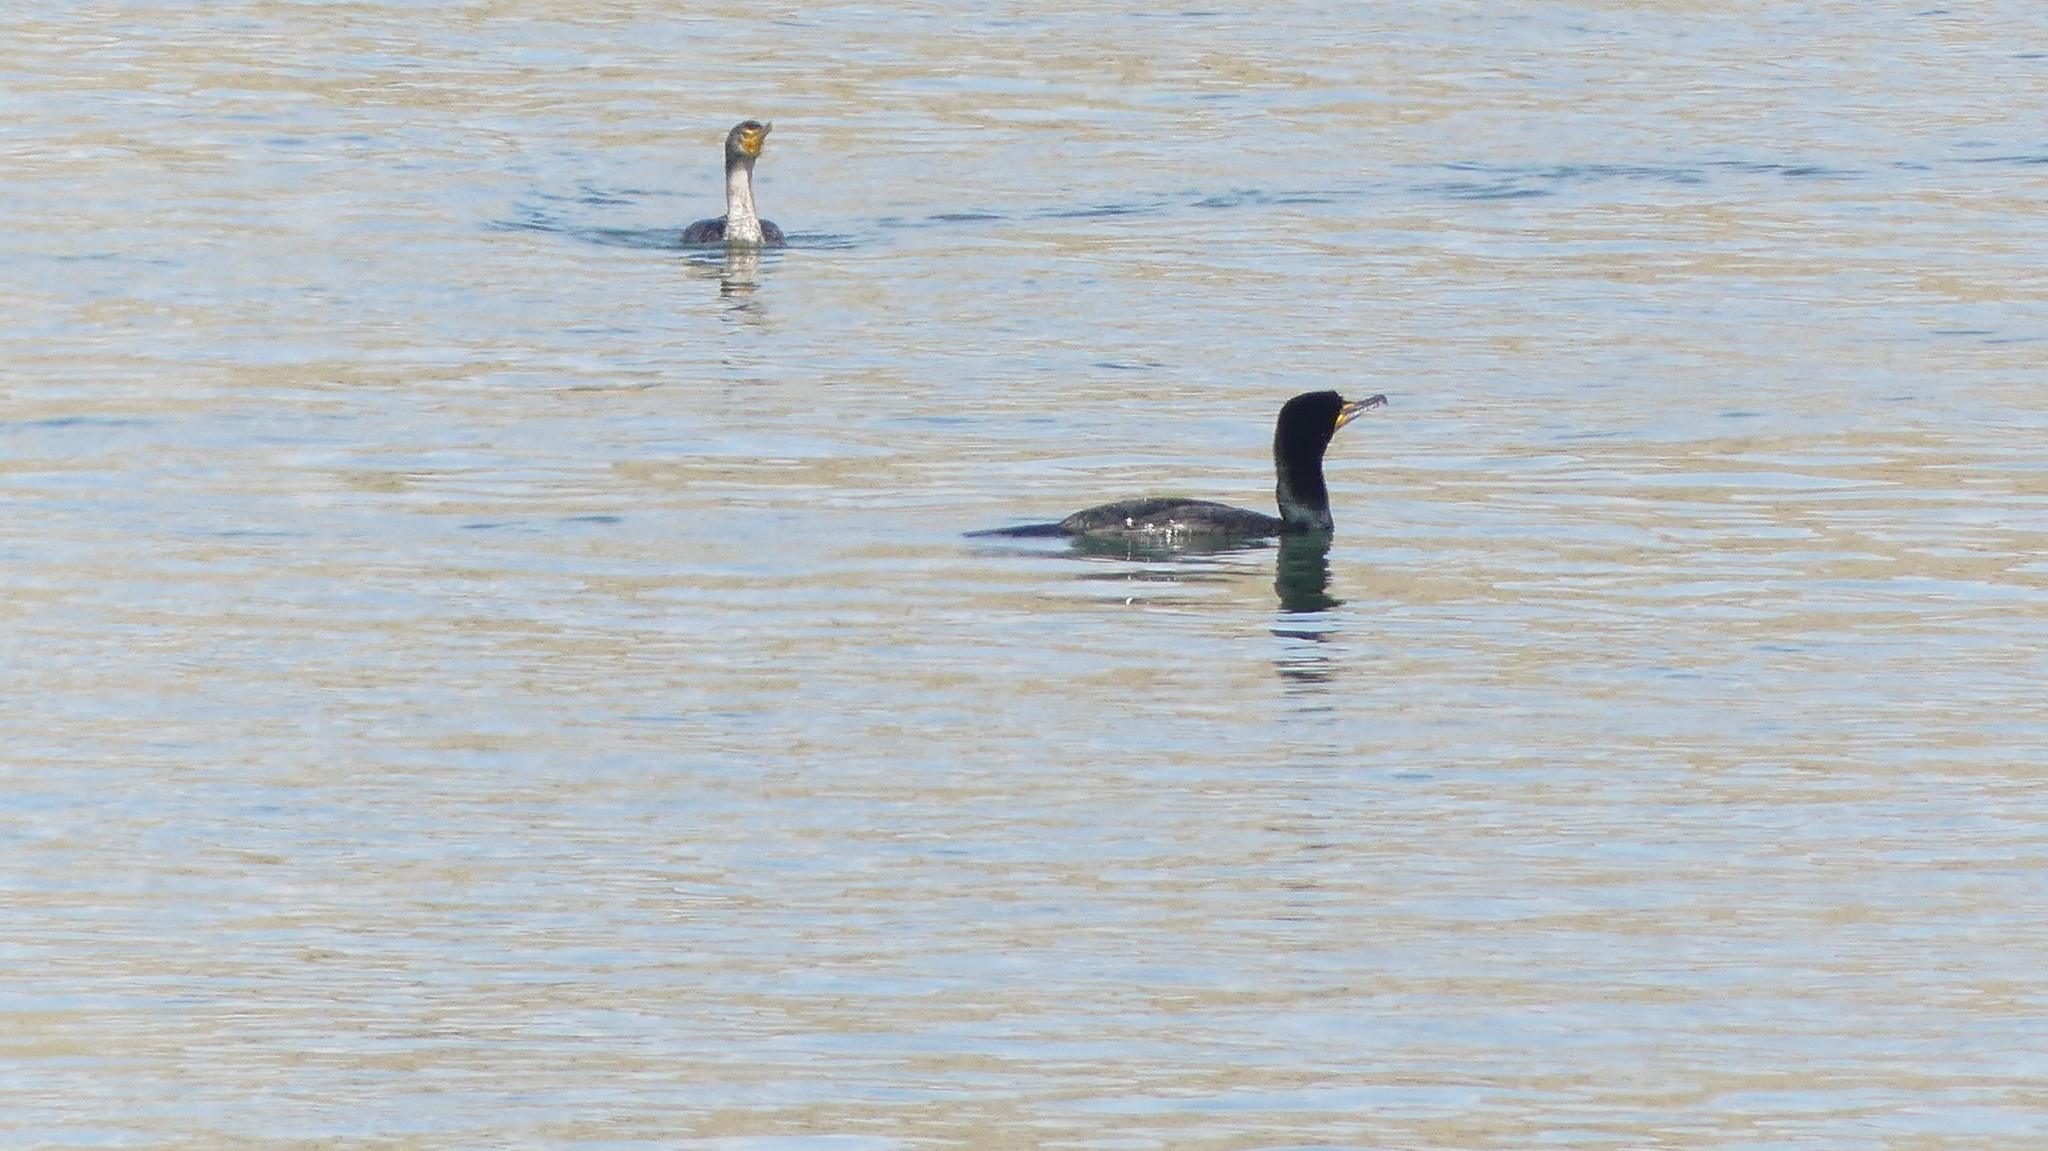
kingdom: Animalia
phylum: Chordata
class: Aves
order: Suliformes
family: Phalacrocoracidae
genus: Phalacrocorax
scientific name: Phalacrocorax auritus
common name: Double-crested cormorant
